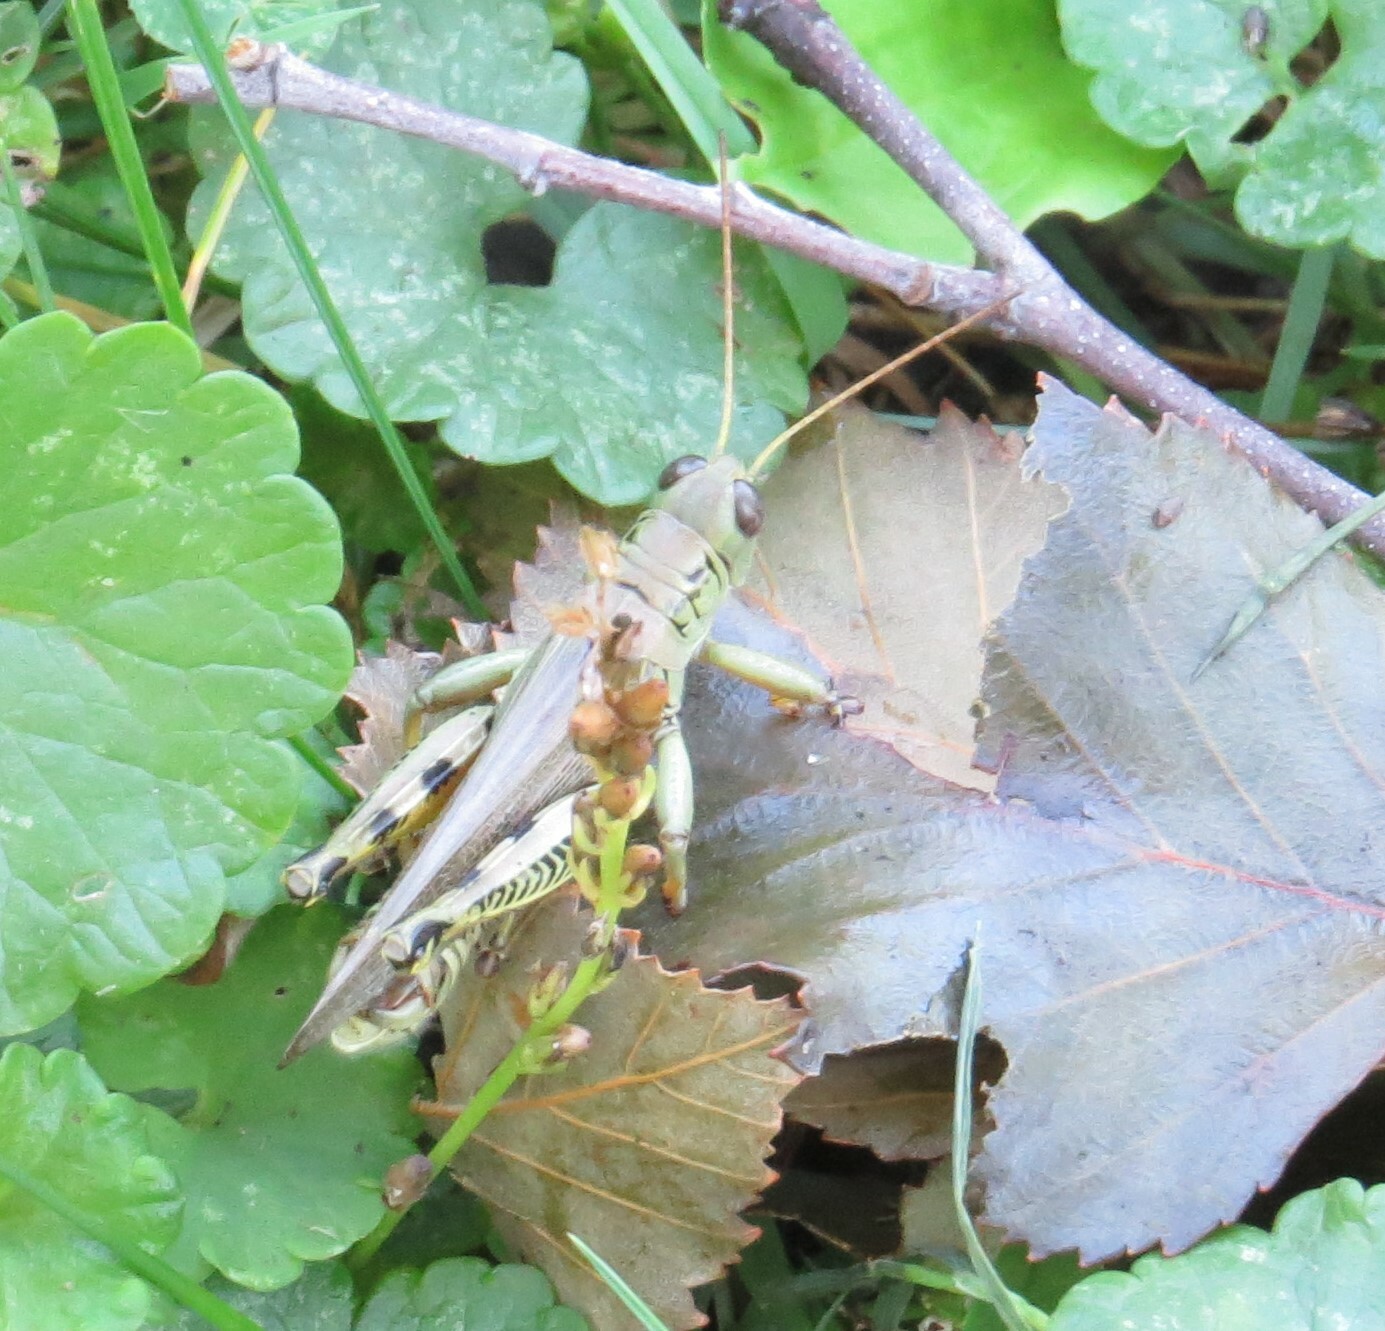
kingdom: Animalia
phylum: Arthropoda
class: Insecta
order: Orthoptera
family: Acrididae
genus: Melanoplus
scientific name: Melanoplus differentialis
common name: Differential grasshopper
